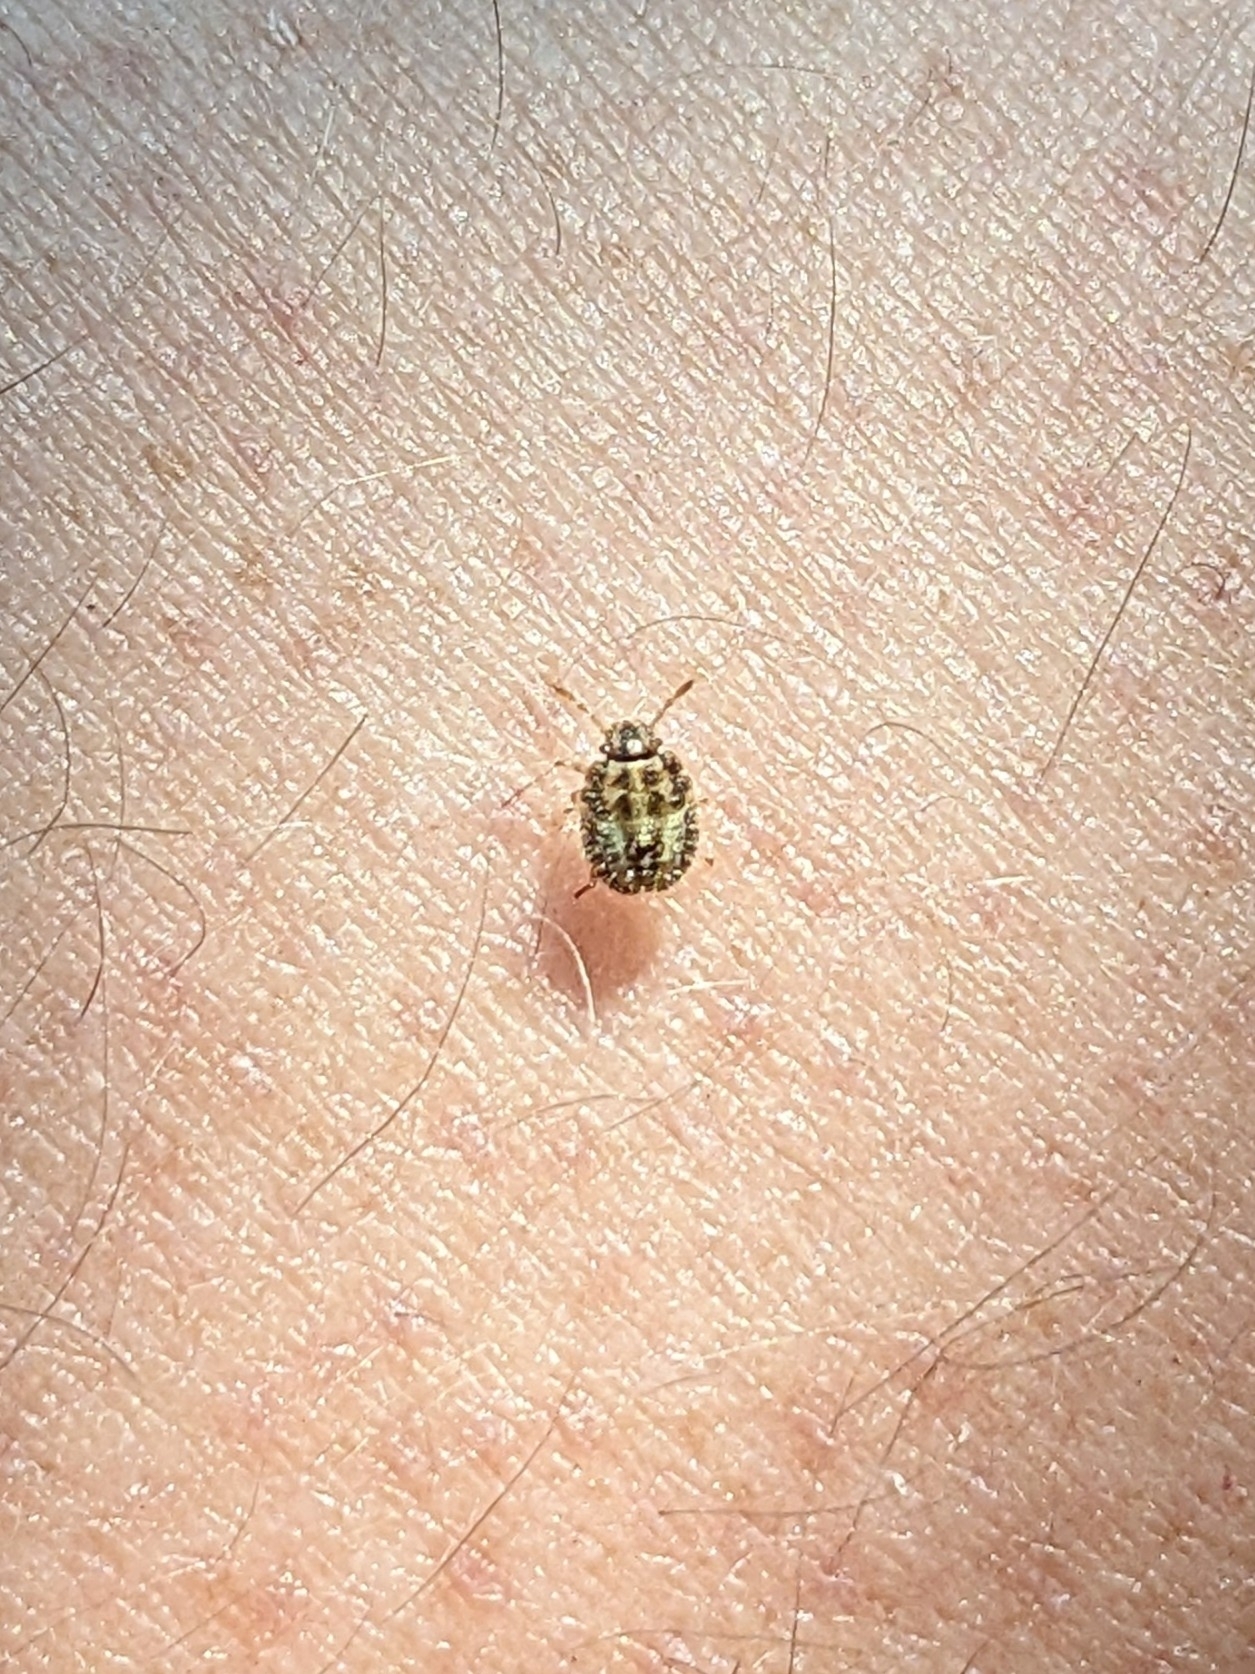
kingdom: Animalia
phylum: Arthropoda
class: Insecta
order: Hemiptera
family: Pentatomidae
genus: Dolycoris
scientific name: Dolycoris baccarum
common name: Sloe bug
